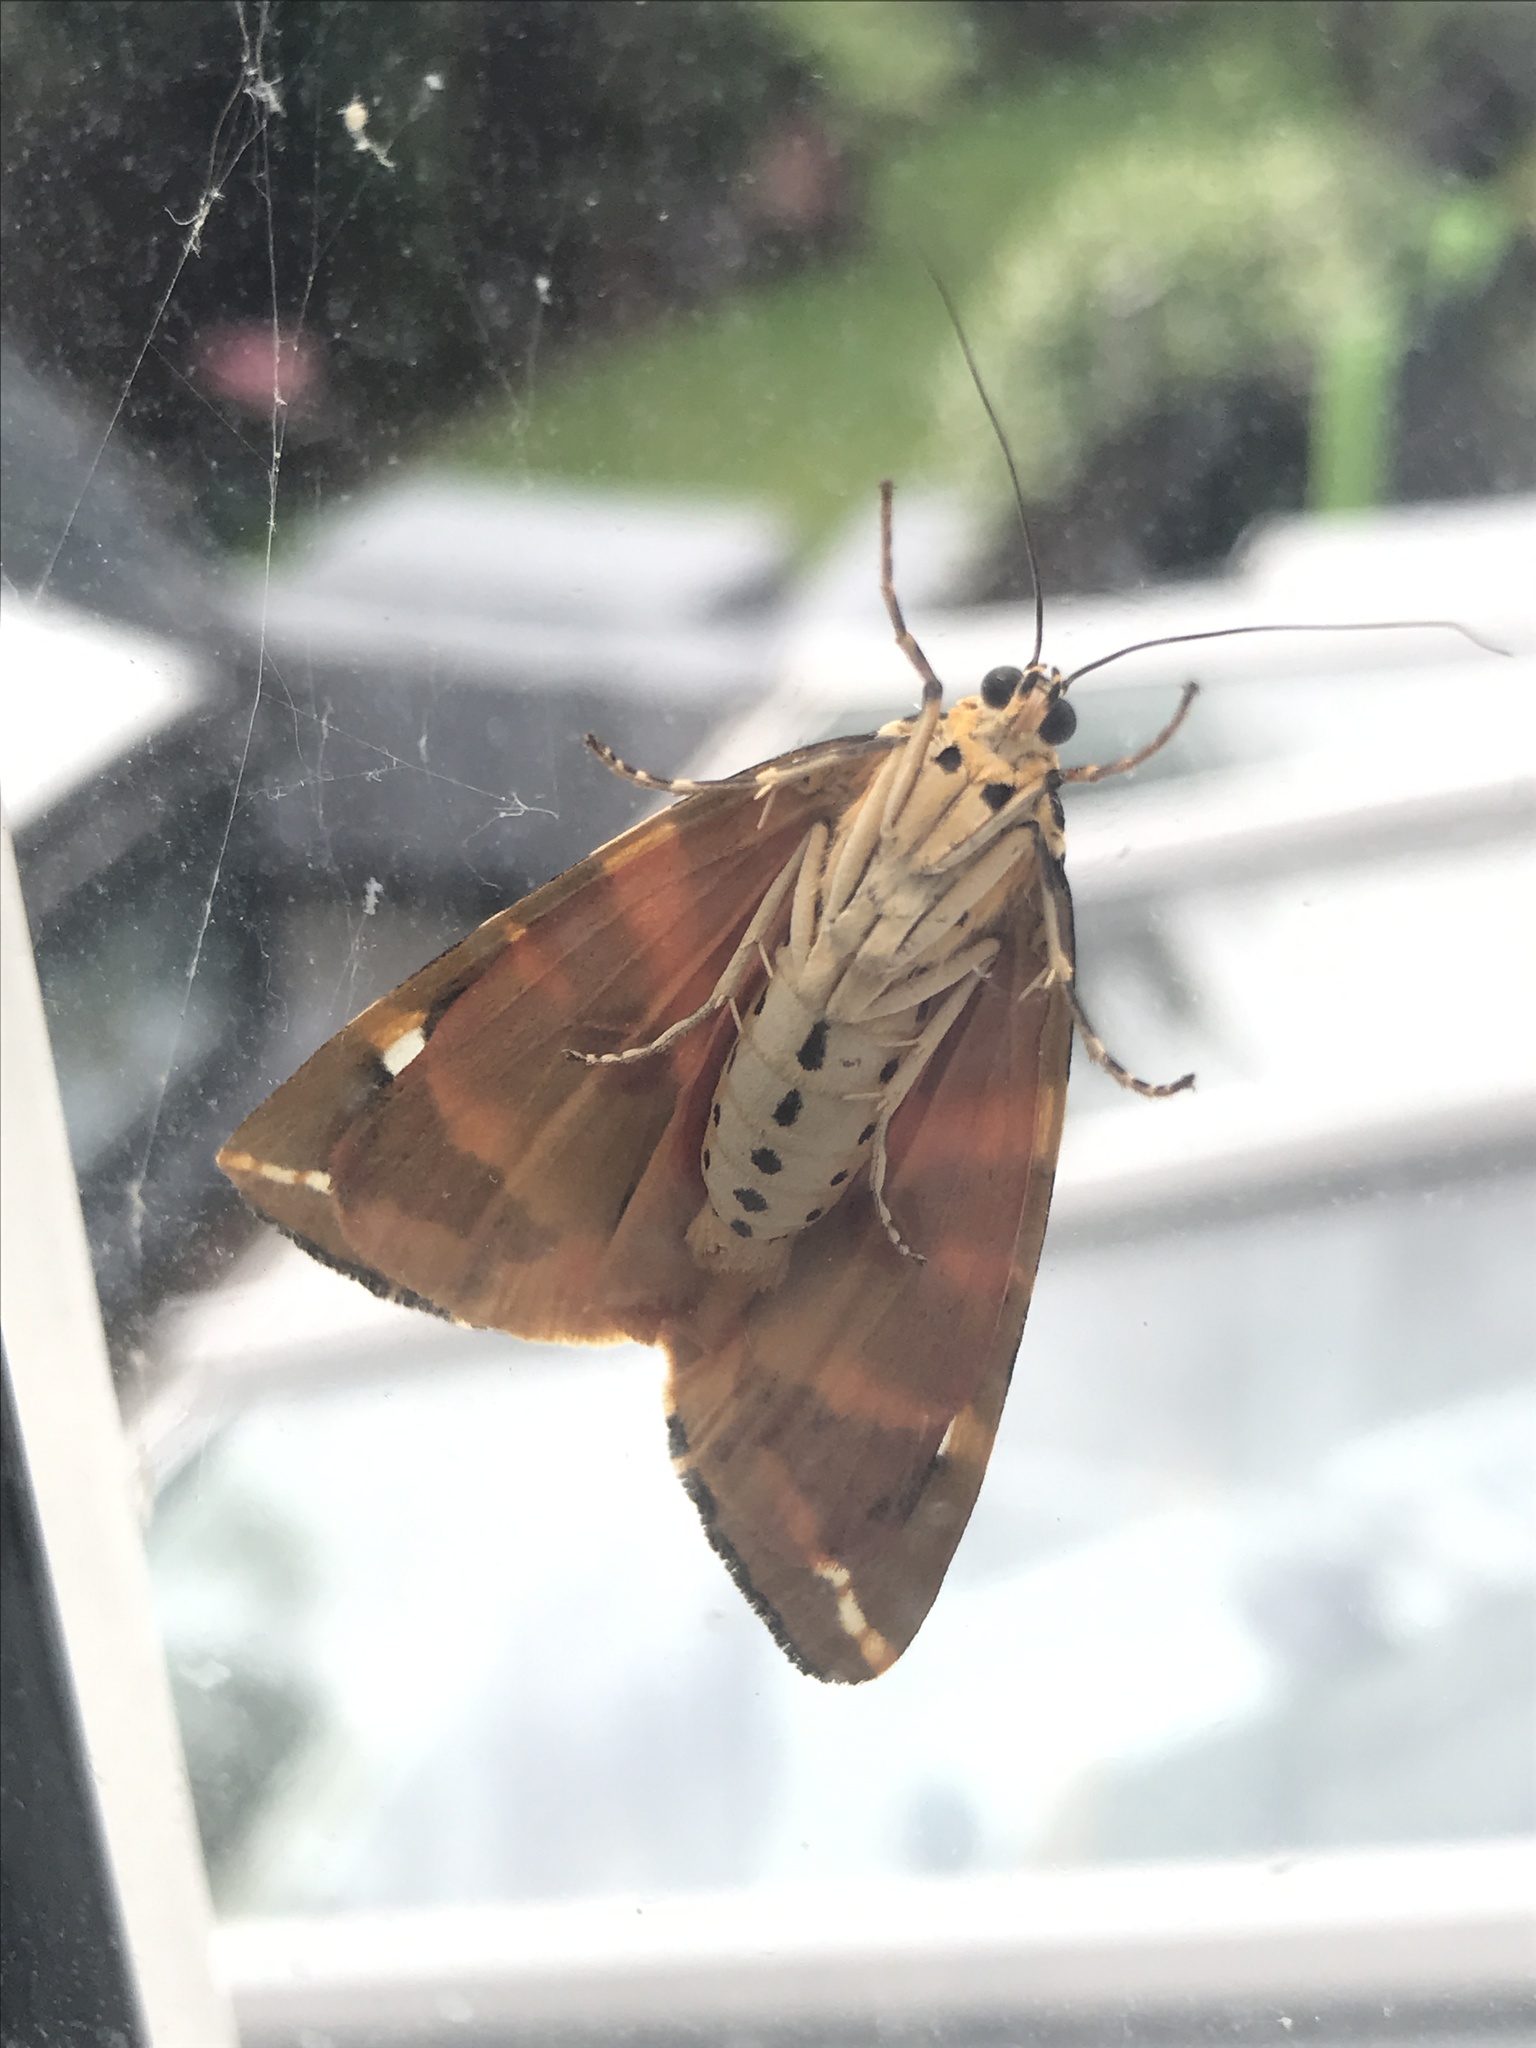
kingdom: Animalia
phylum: Arthropoda
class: Insecta
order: Lepidoptera
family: Erebidae
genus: Euplagia
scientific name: Euplagia quadripunctaria
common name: Jersey tiger
